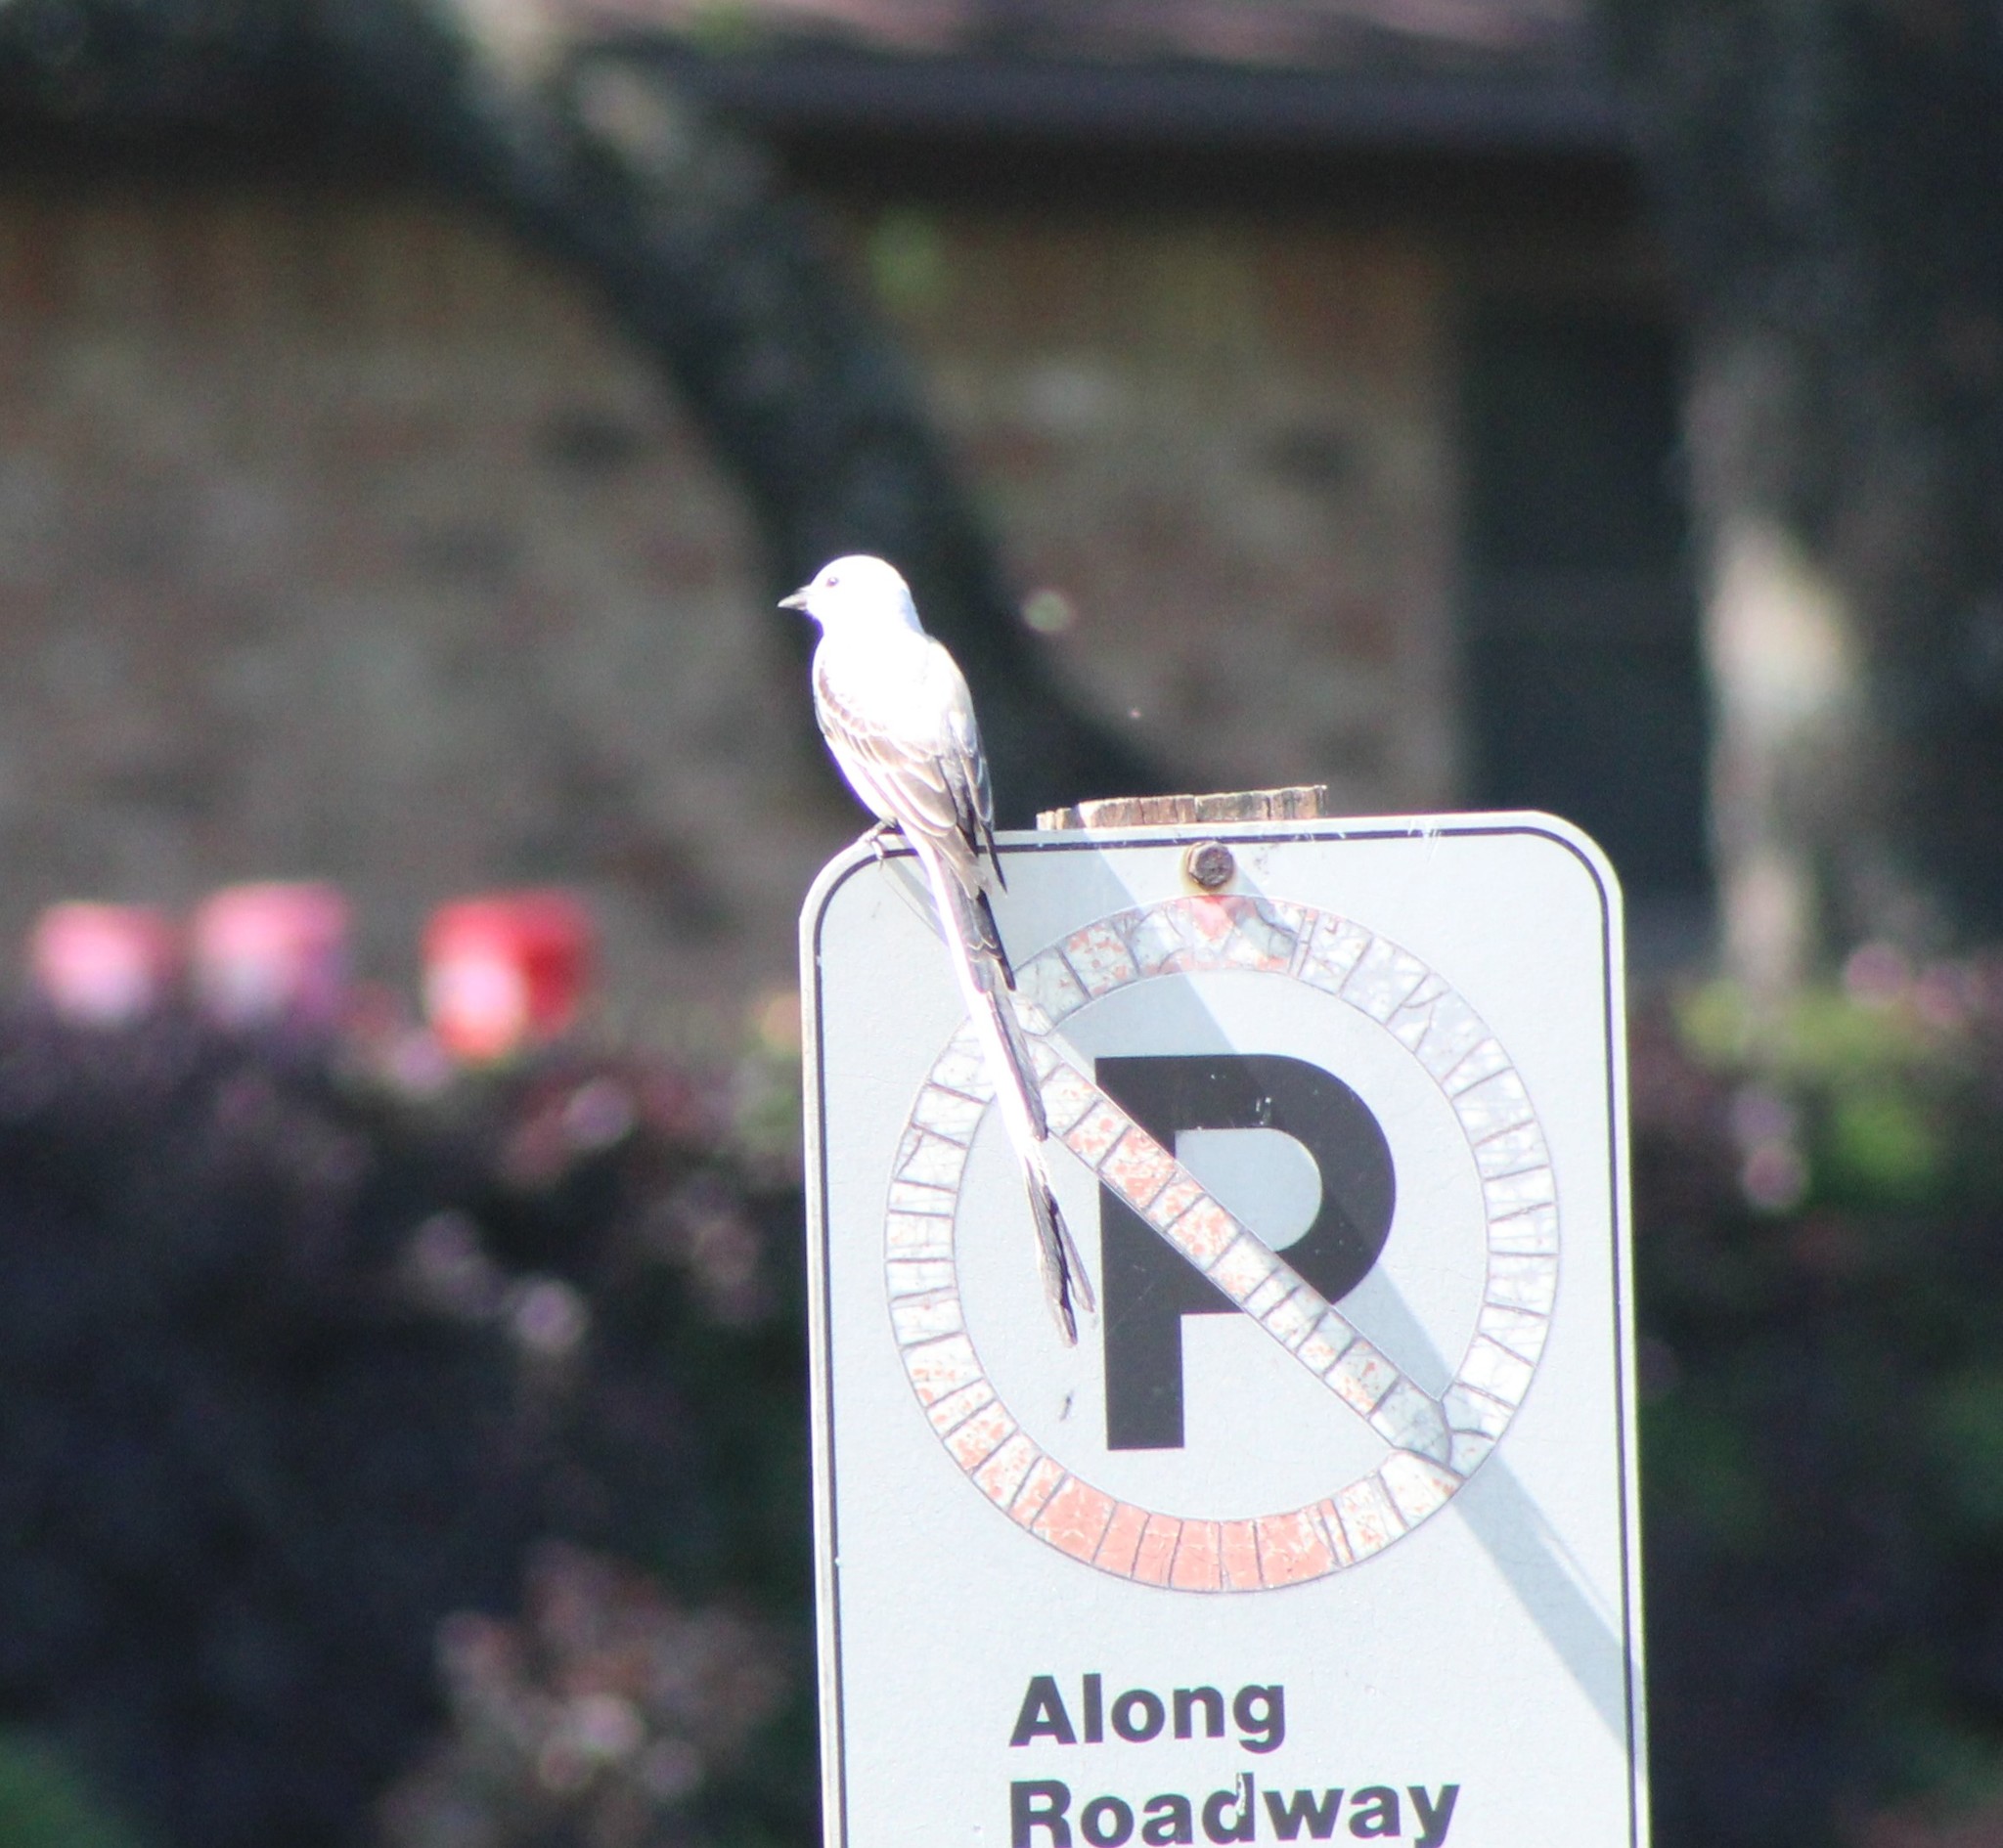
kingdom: Animalia
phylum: Chordata
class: Aves
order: Passeriformes
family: Tyrannidae
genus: Tyrannus
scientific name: Tyrannus forficatus
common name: Scissor-tailed flycatcher
